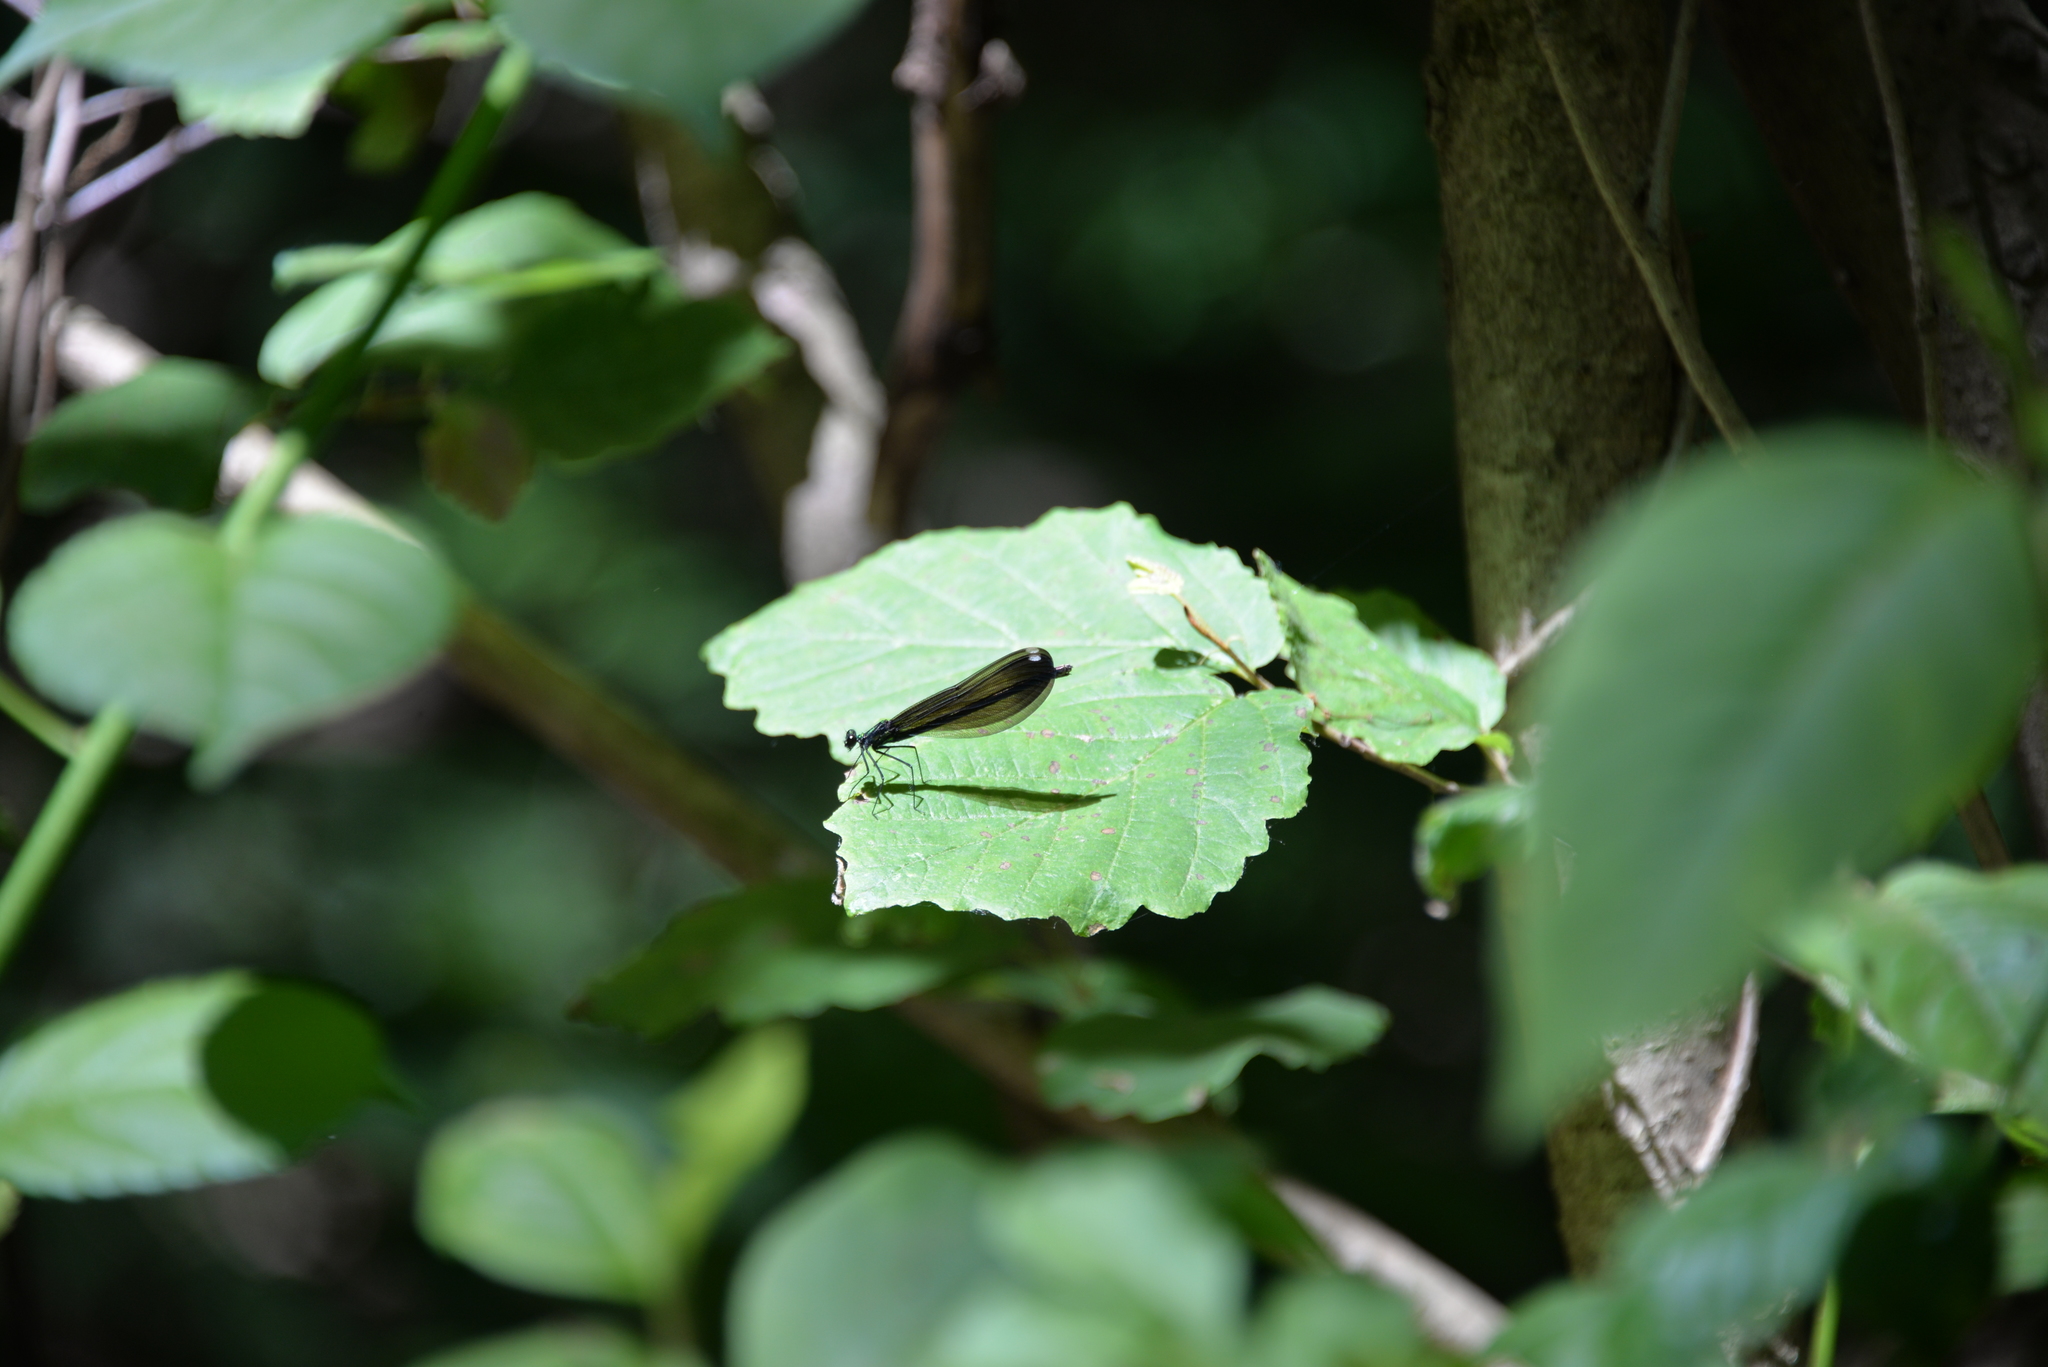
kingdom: Animalia
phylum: Arthropoda
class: Insecta
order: Odonata
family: Calopterygidae
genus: Calopteryx
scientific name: Calopteryx maculata
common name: Ebony jewelwing
